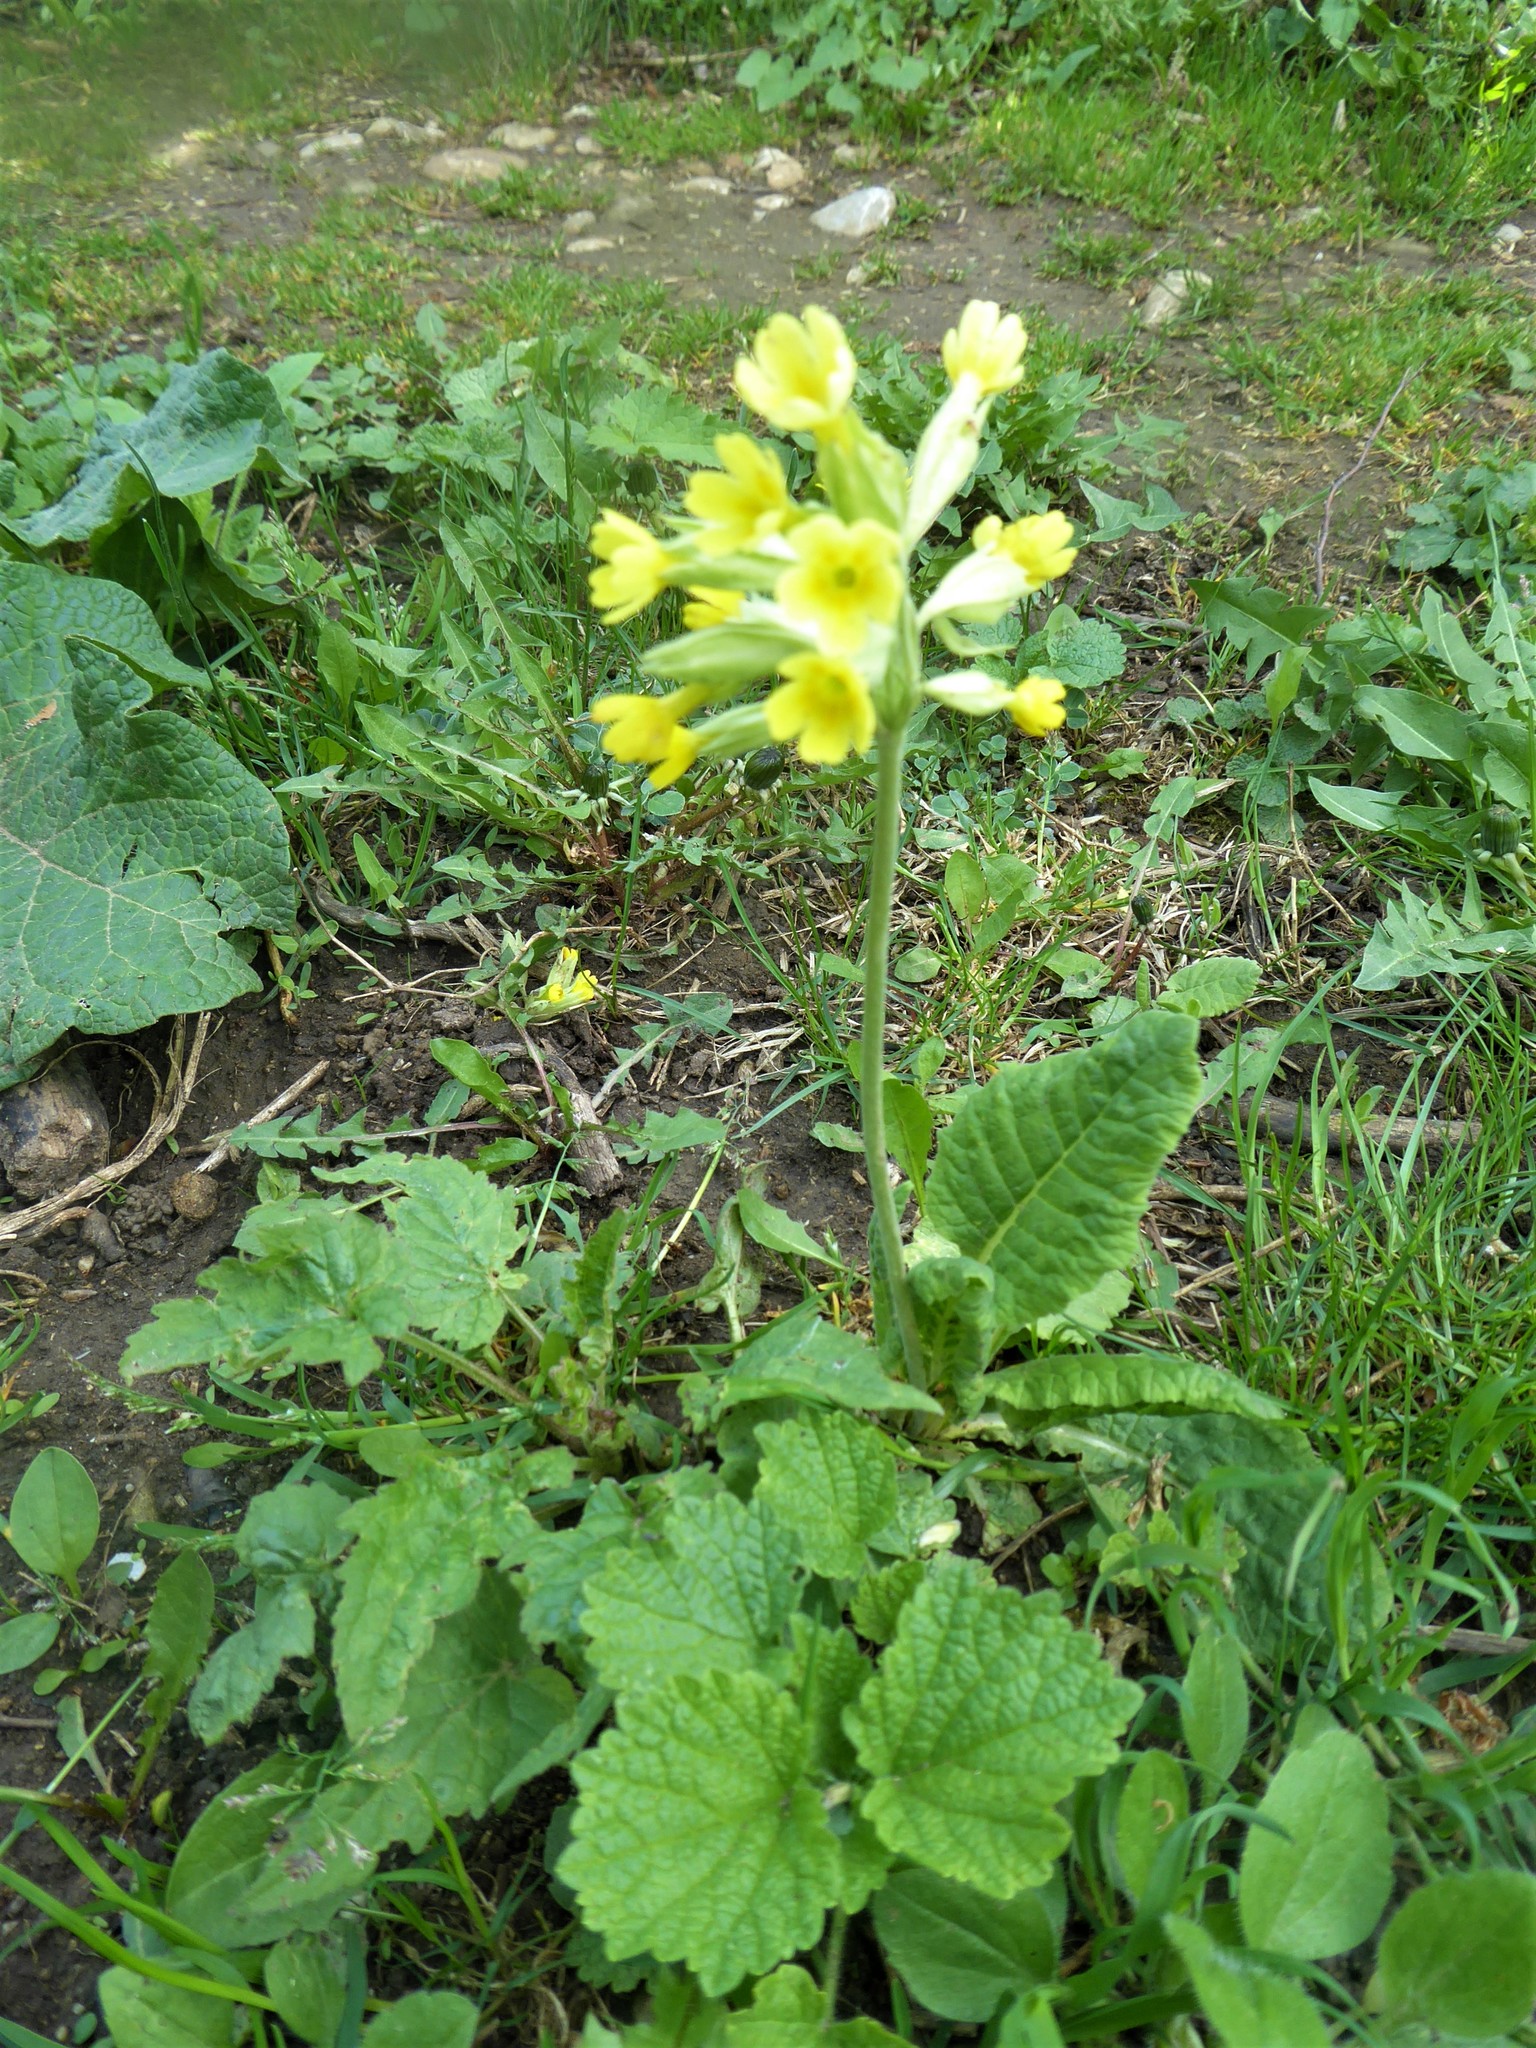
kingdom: Plantae
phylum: Tracheophyta
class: Magnoliopsida
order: Ericales
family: Primulaceae
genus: Primula
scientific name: Primula veris
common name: Cowslip
